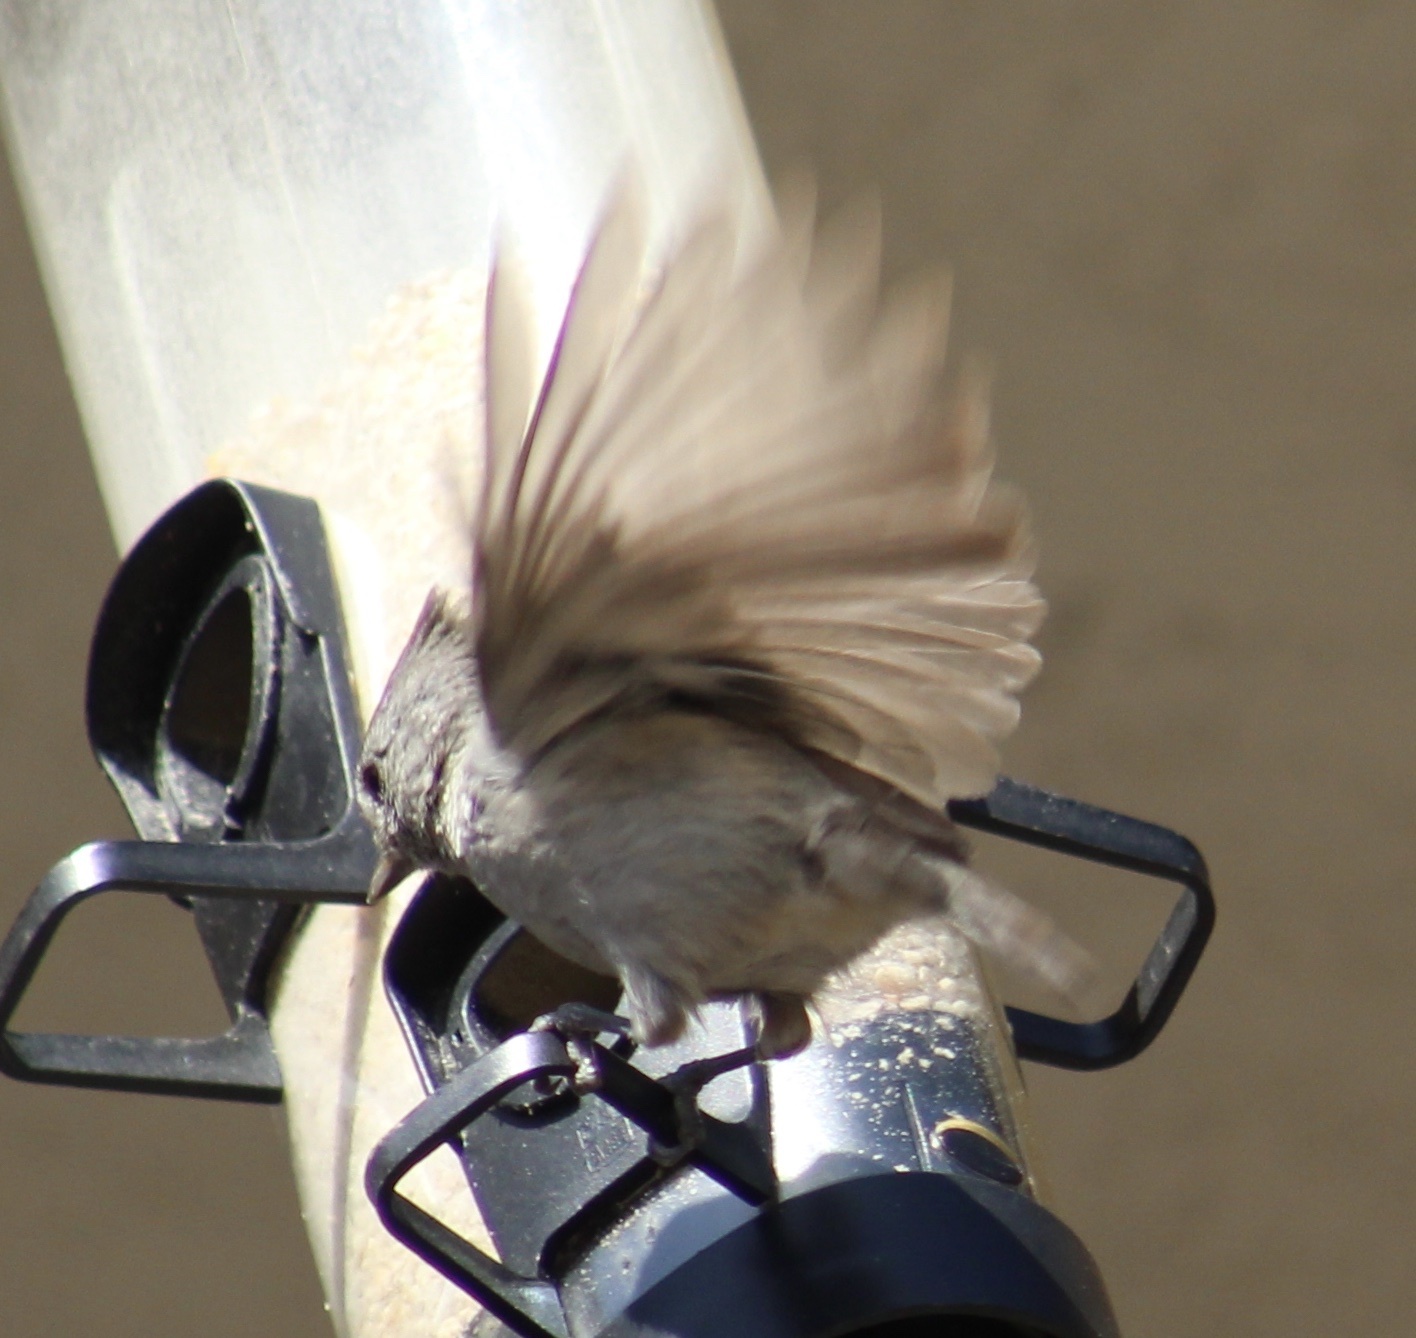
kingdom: Animalia
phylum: Chordata
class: Aves
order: Passeriformes
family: Paridae
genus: Baeolophus
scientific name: Baeolophus inornatus
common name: Oak titmouse
